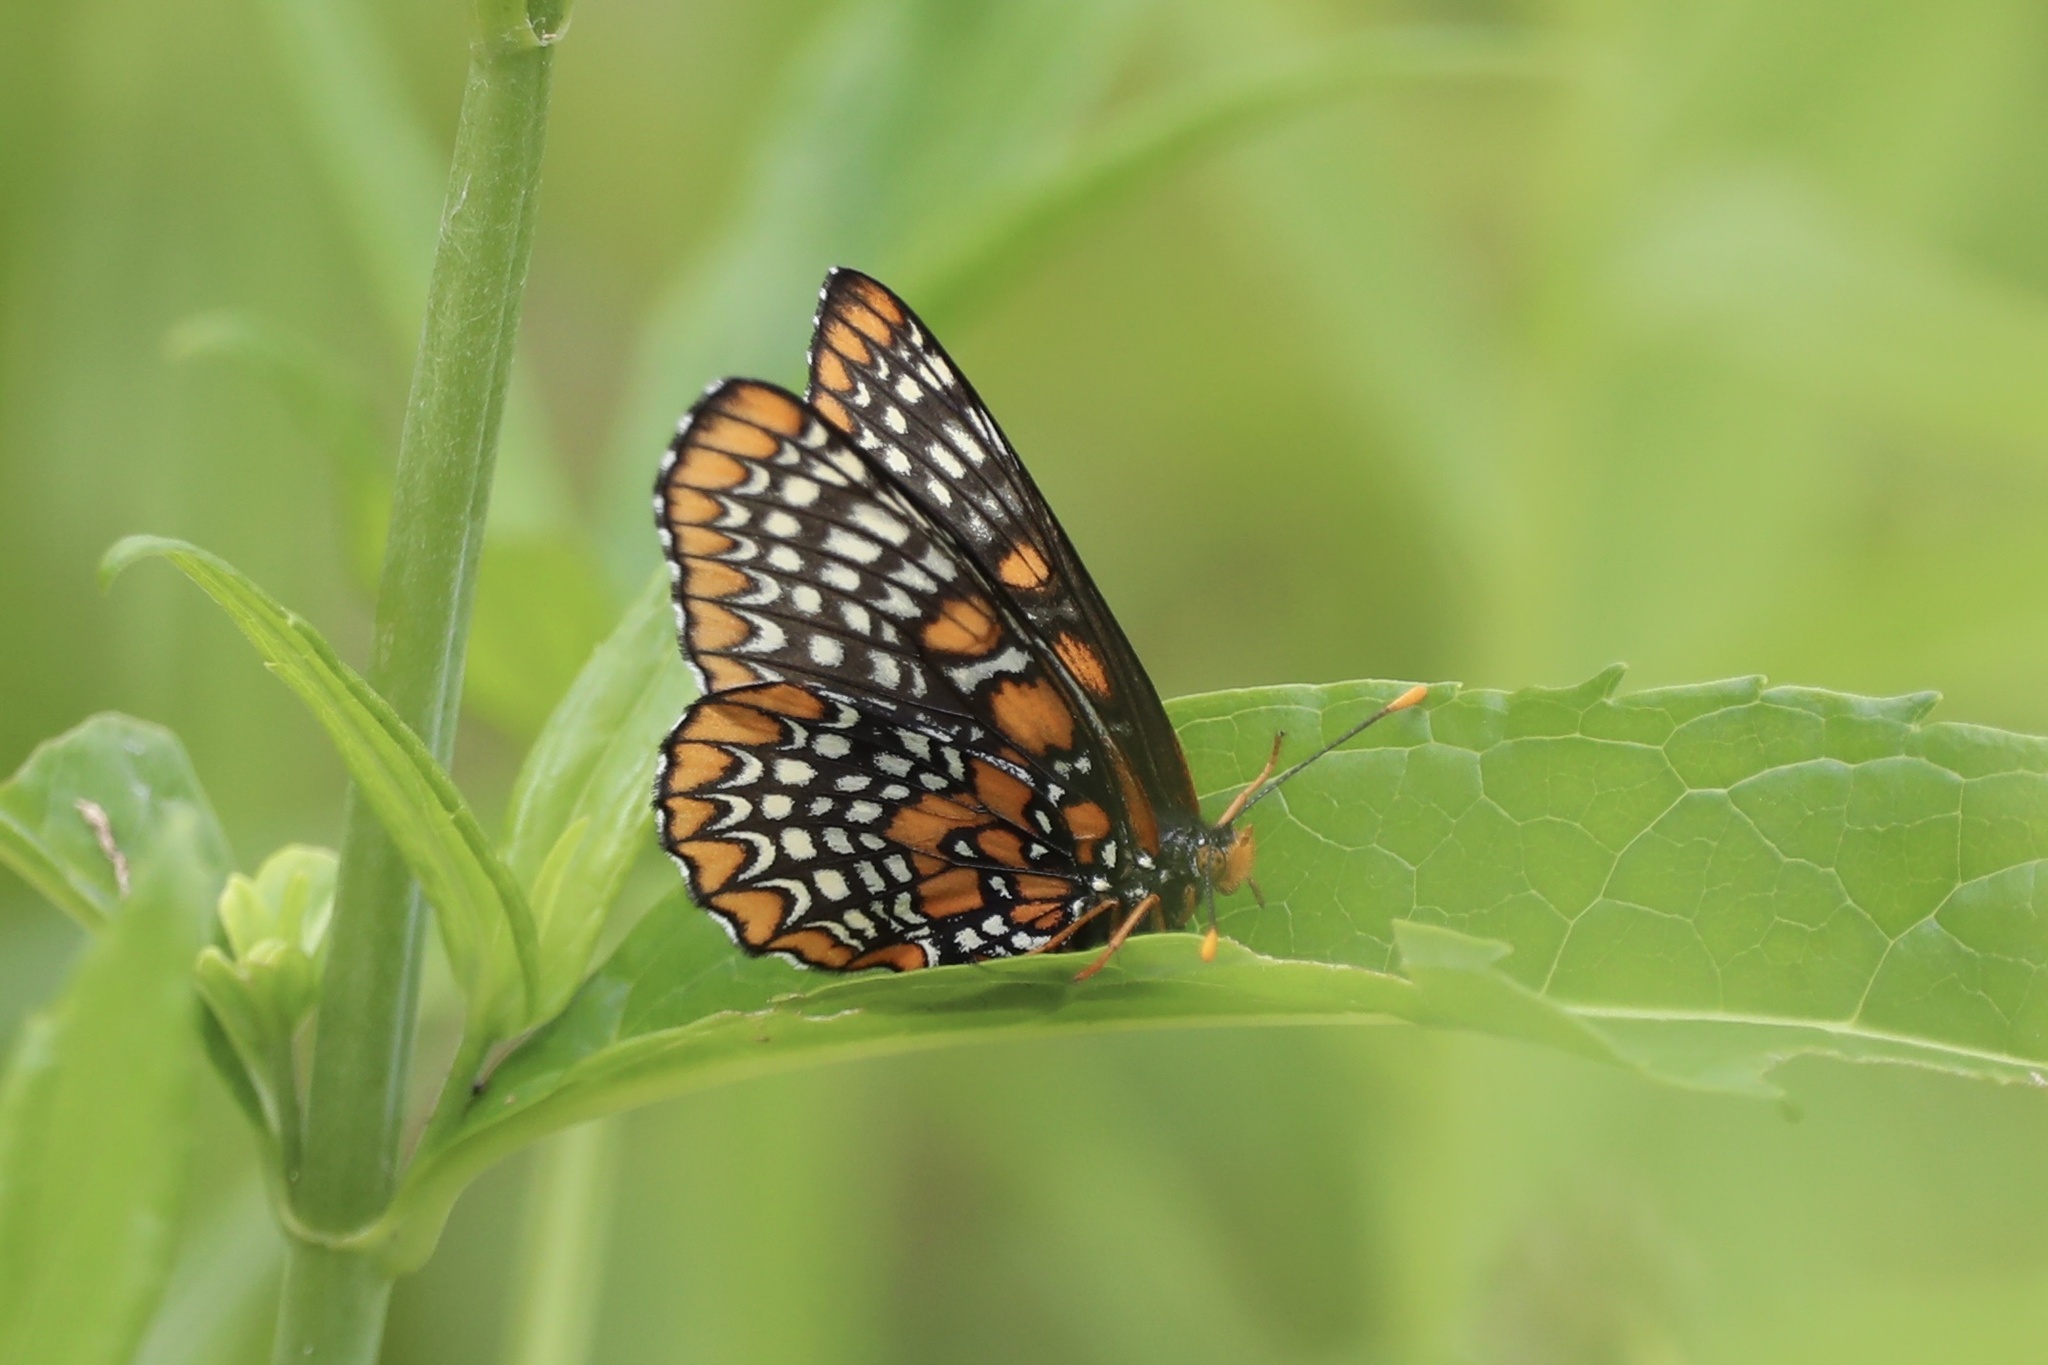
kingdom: Animalia
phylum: Arthropoda
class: Insecta
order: Lepidoptera
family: Nymphalidae
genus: Euphydryas
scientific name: Euphydryas phaeton
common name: Baltimore checkerspot
